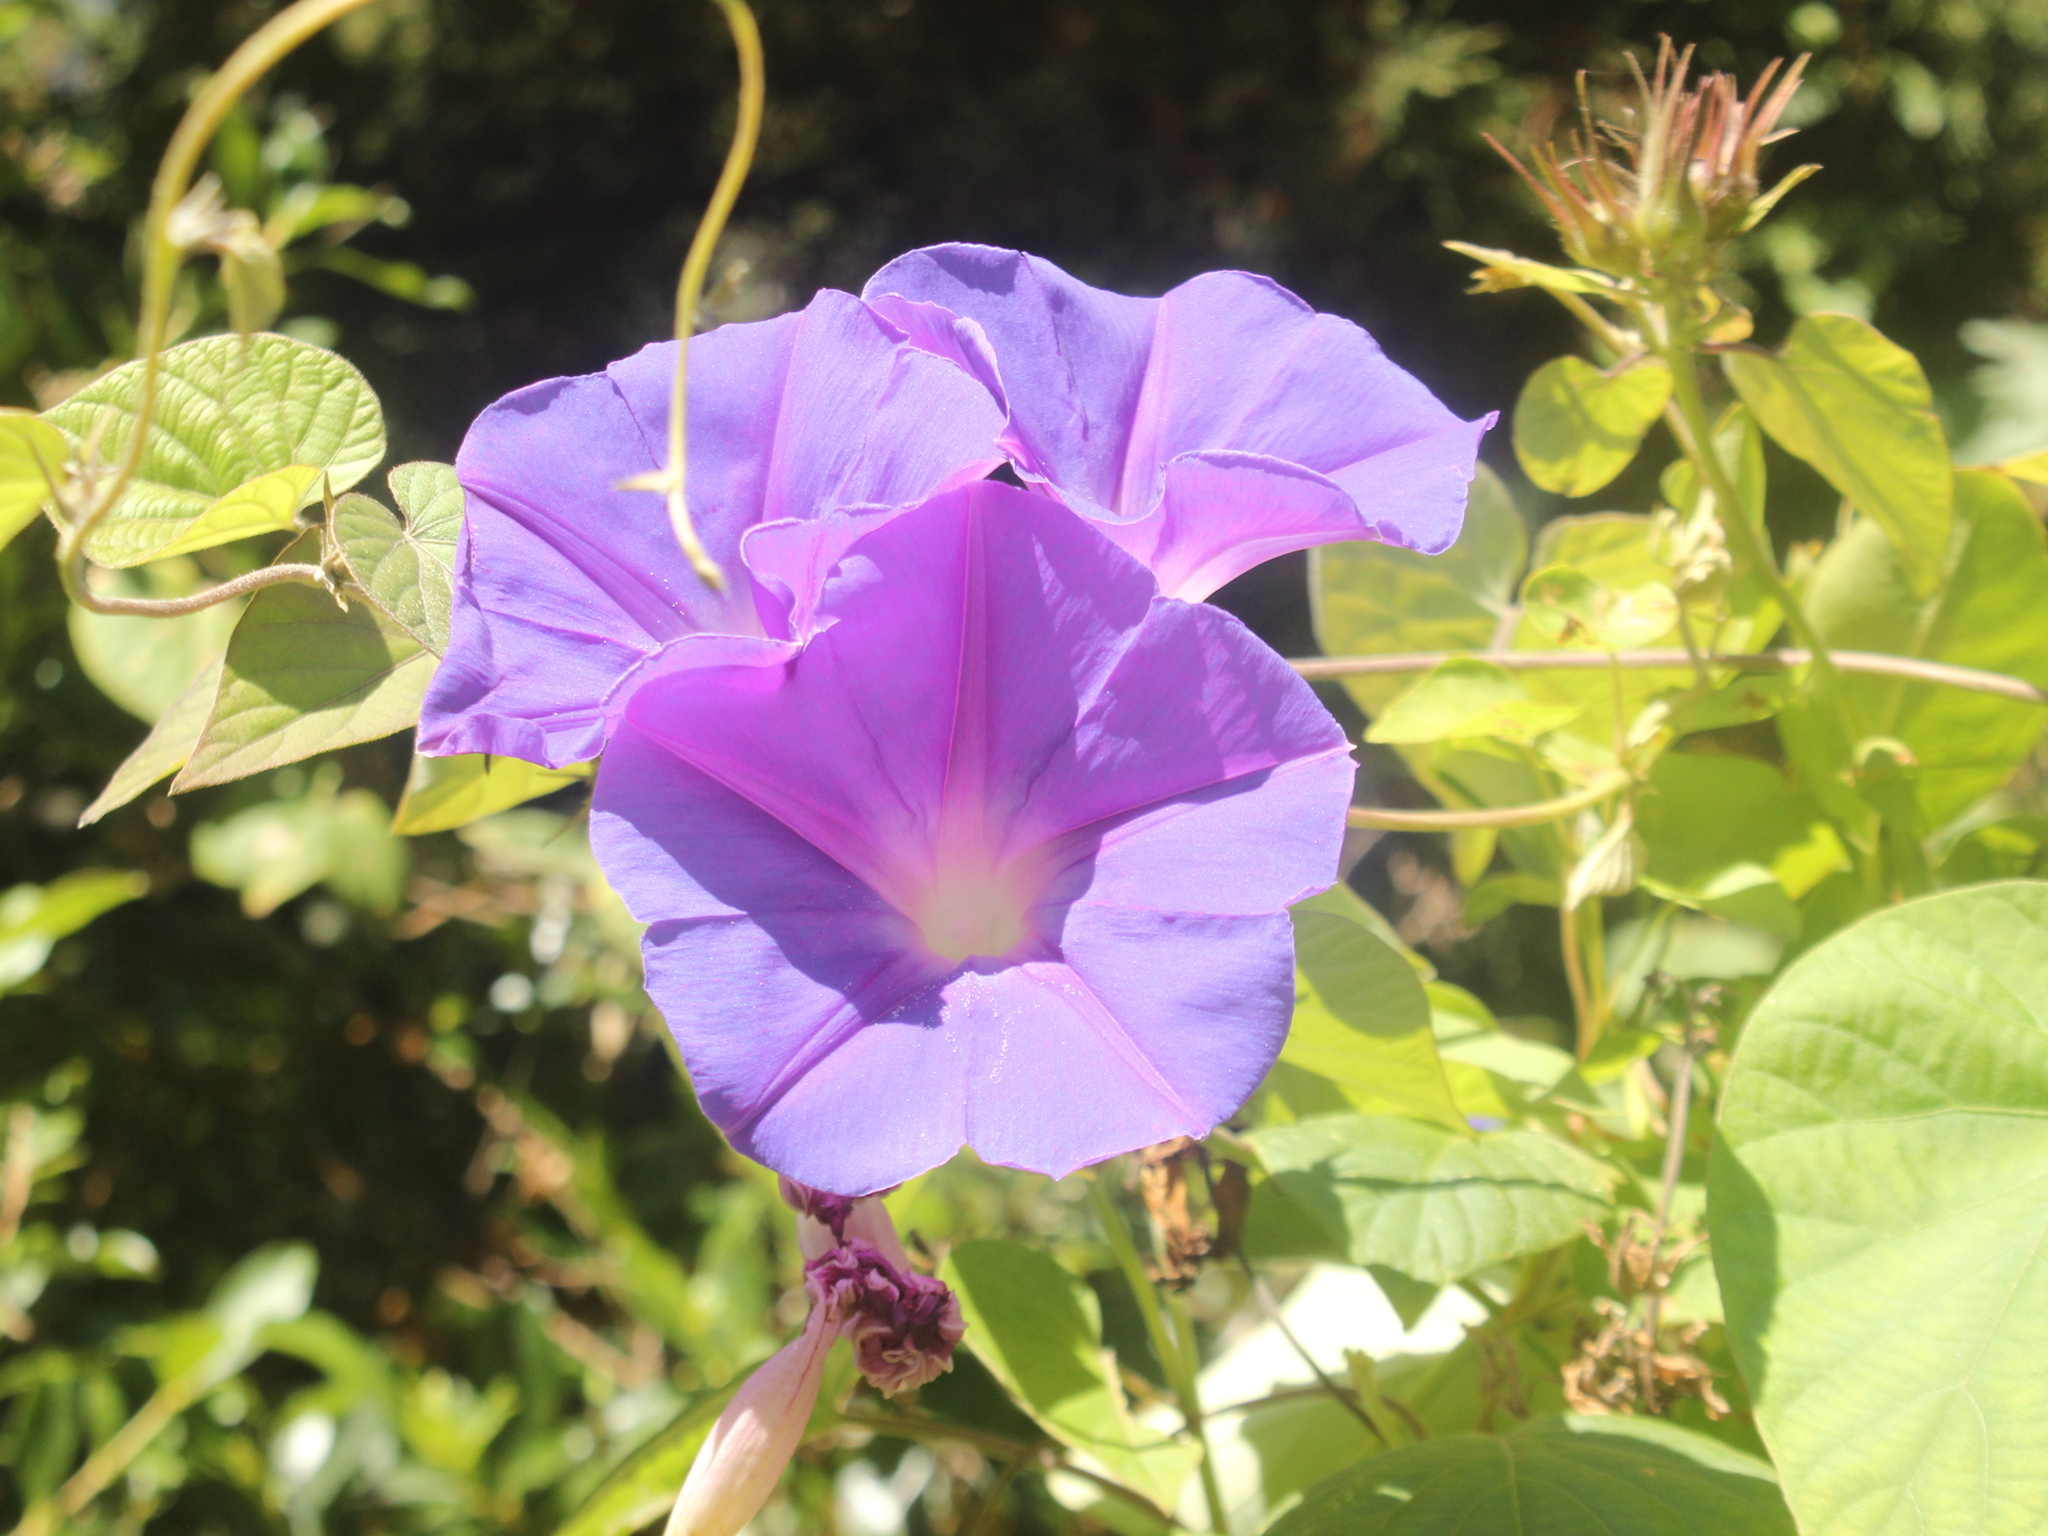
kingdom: Plantae
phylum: Tracheophyta
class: Magnoliopsida
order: Solanales
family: Convolvulaceae
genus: Ipomoea
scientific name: Ipomoea indica
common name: Blue dawnflower
